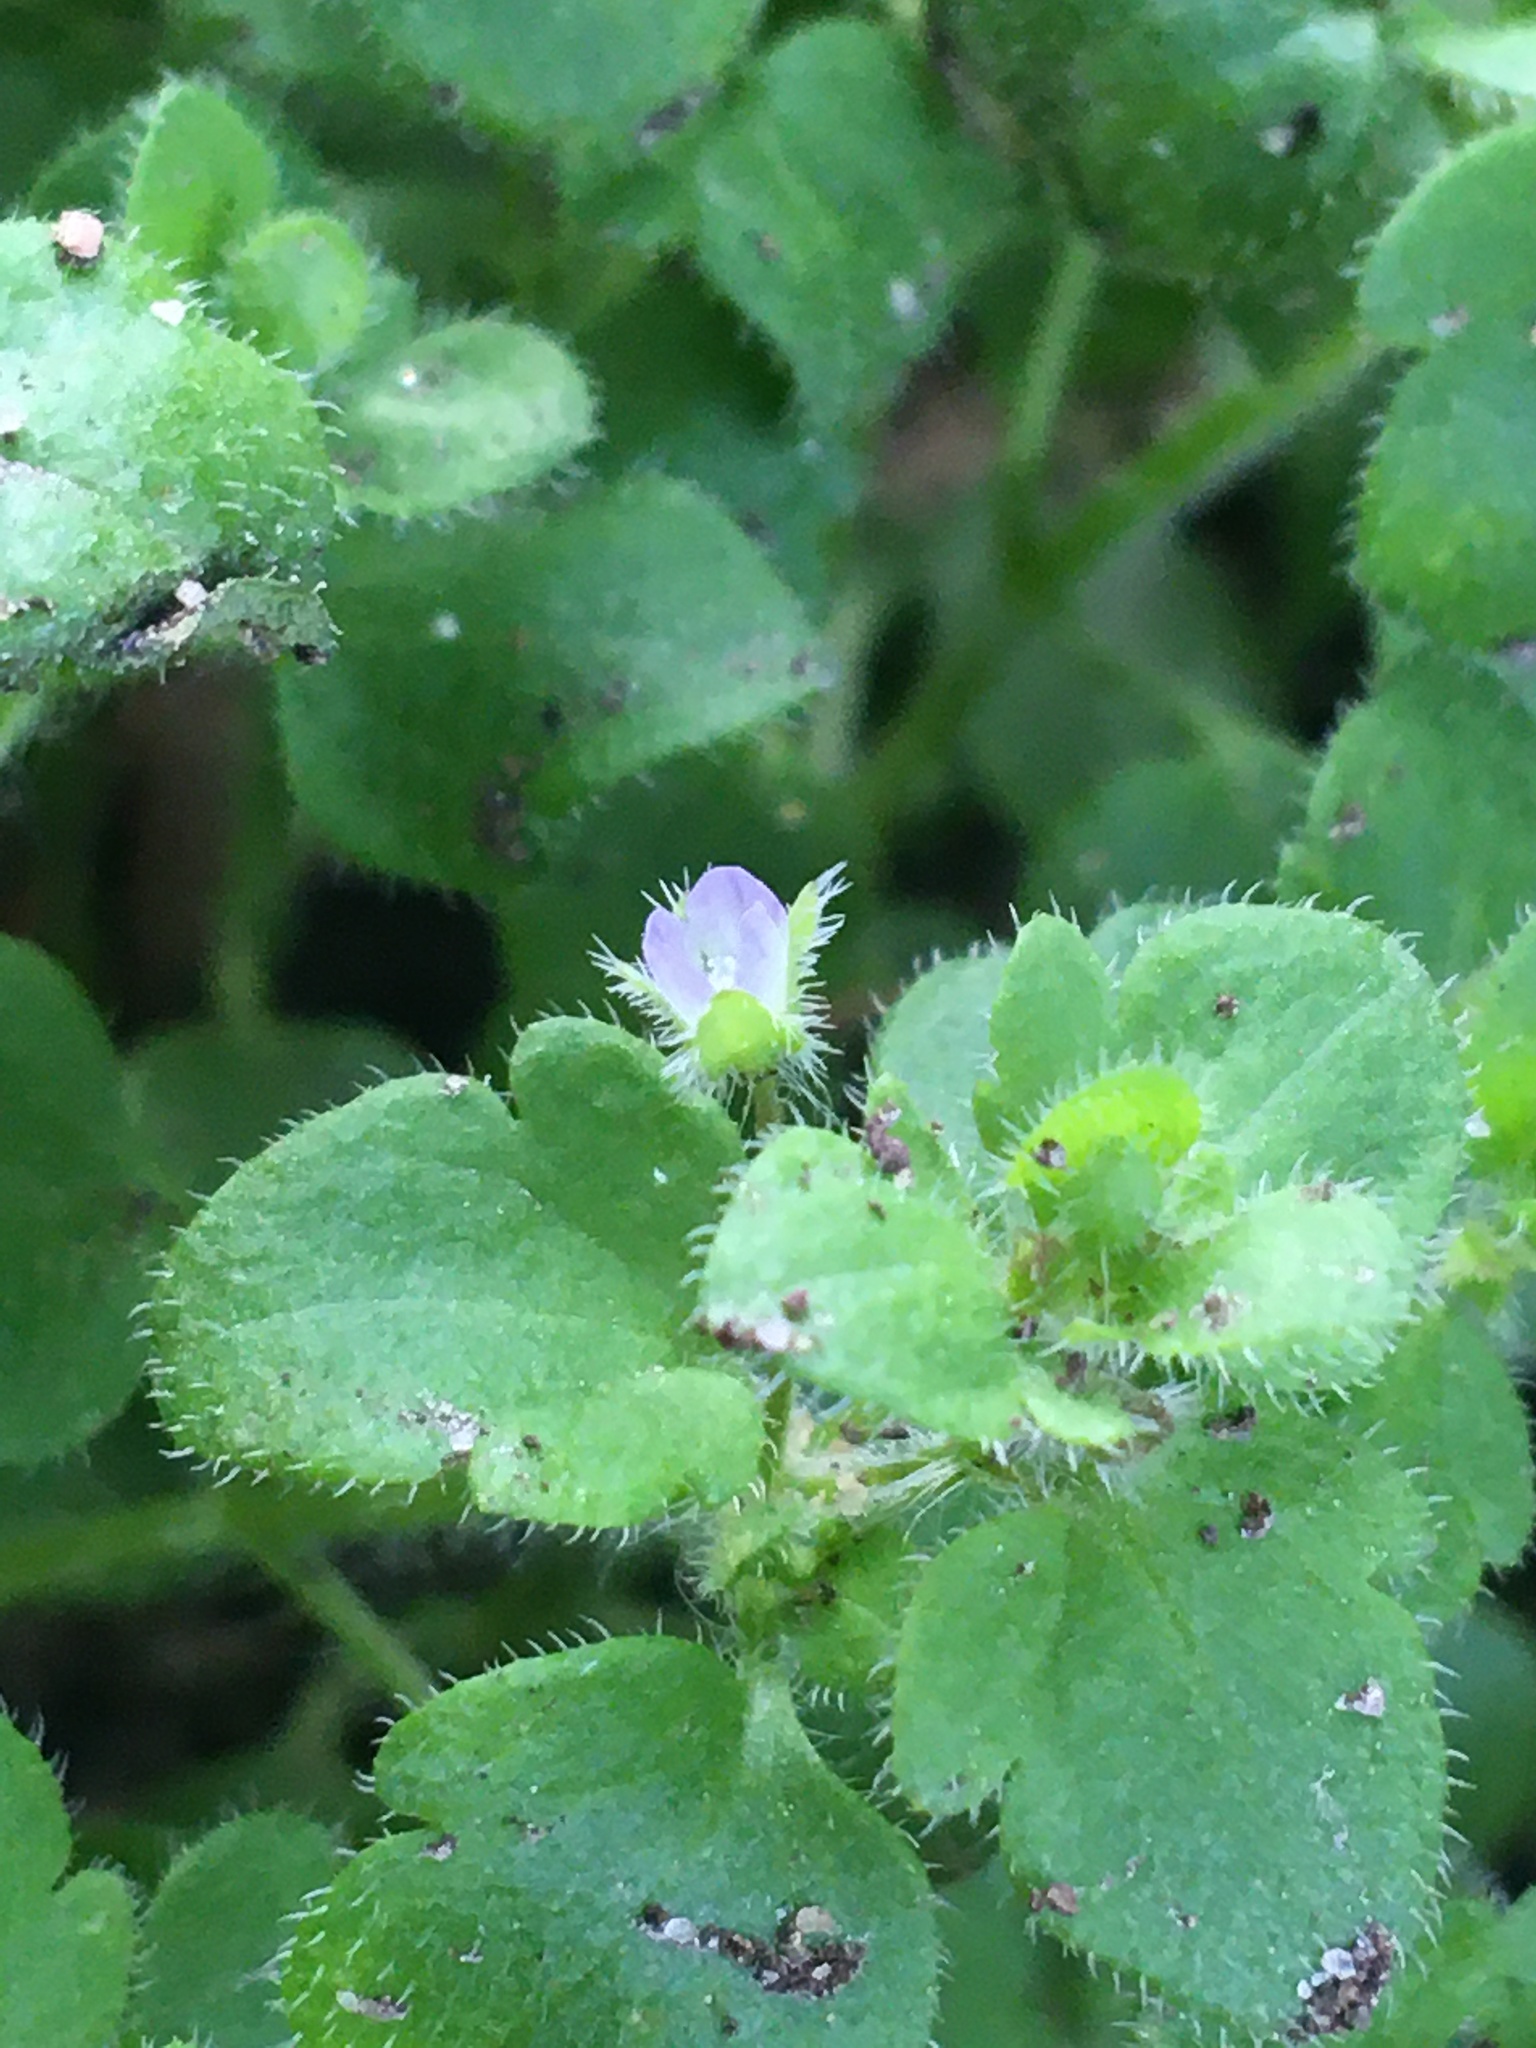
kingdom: Plantae
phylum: Tracheophyta
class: Magnoliopsida
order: Lamiales
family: Plantaginaceae
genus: Veronica
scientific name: Veronica hederifolia
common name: Ivy-leaved speedwell
